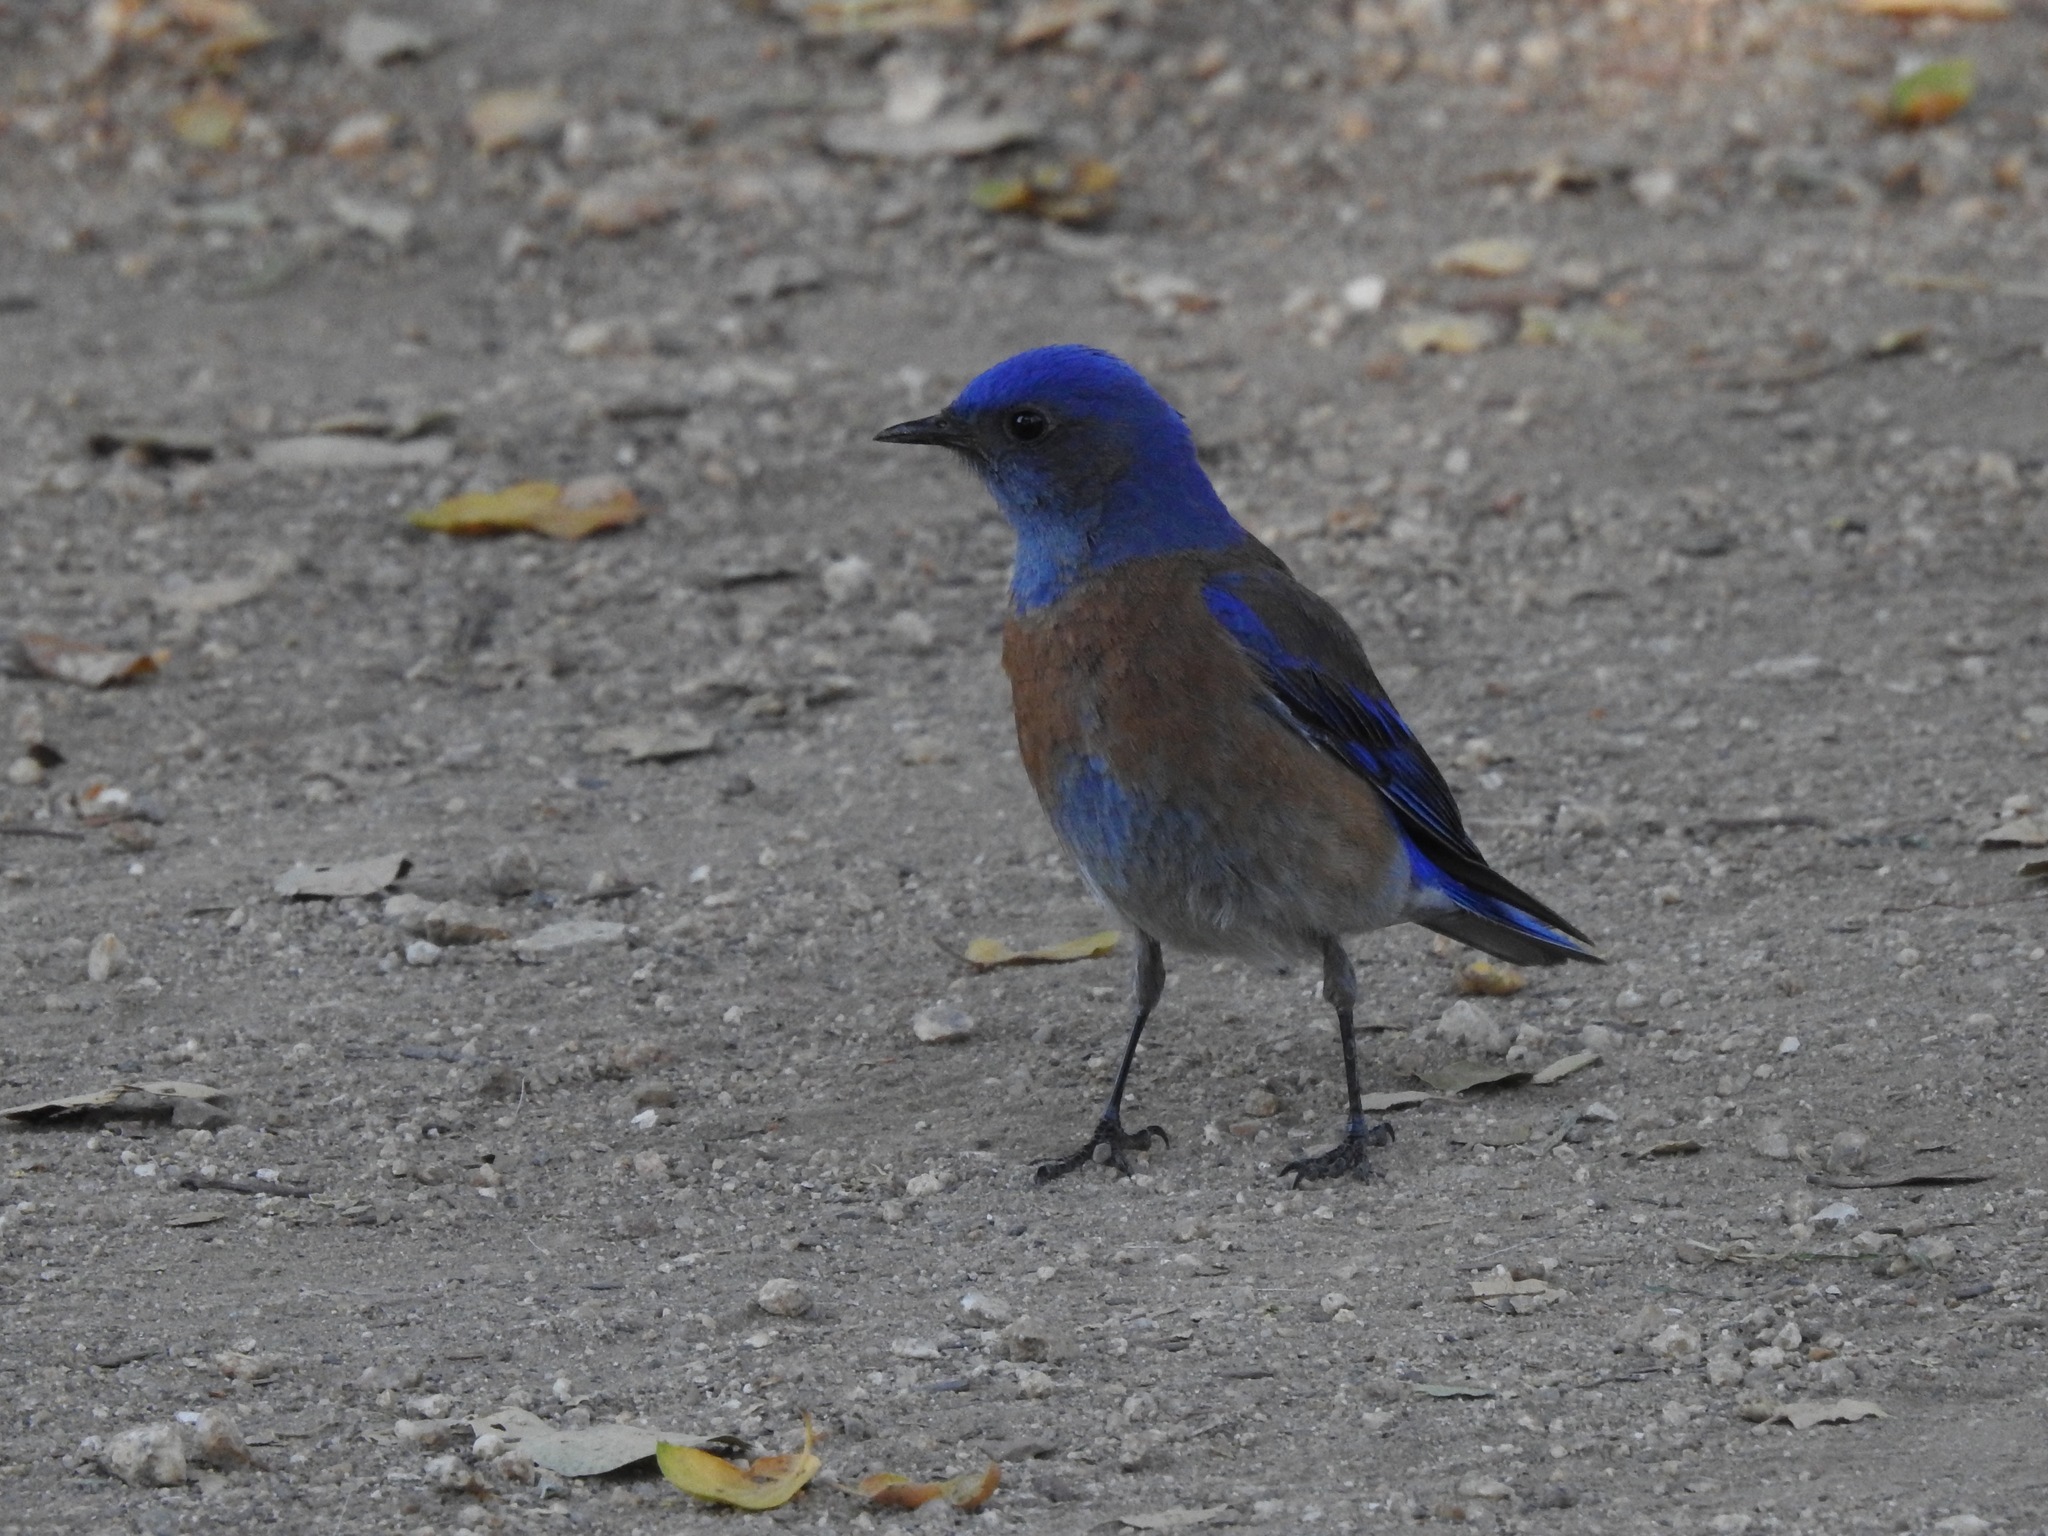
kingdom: Animalia
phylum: Chordata
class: Aves
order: Passeriformes
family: Turdidae
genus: Sialia
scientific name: Sialia mexicana
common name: Western bluebird
